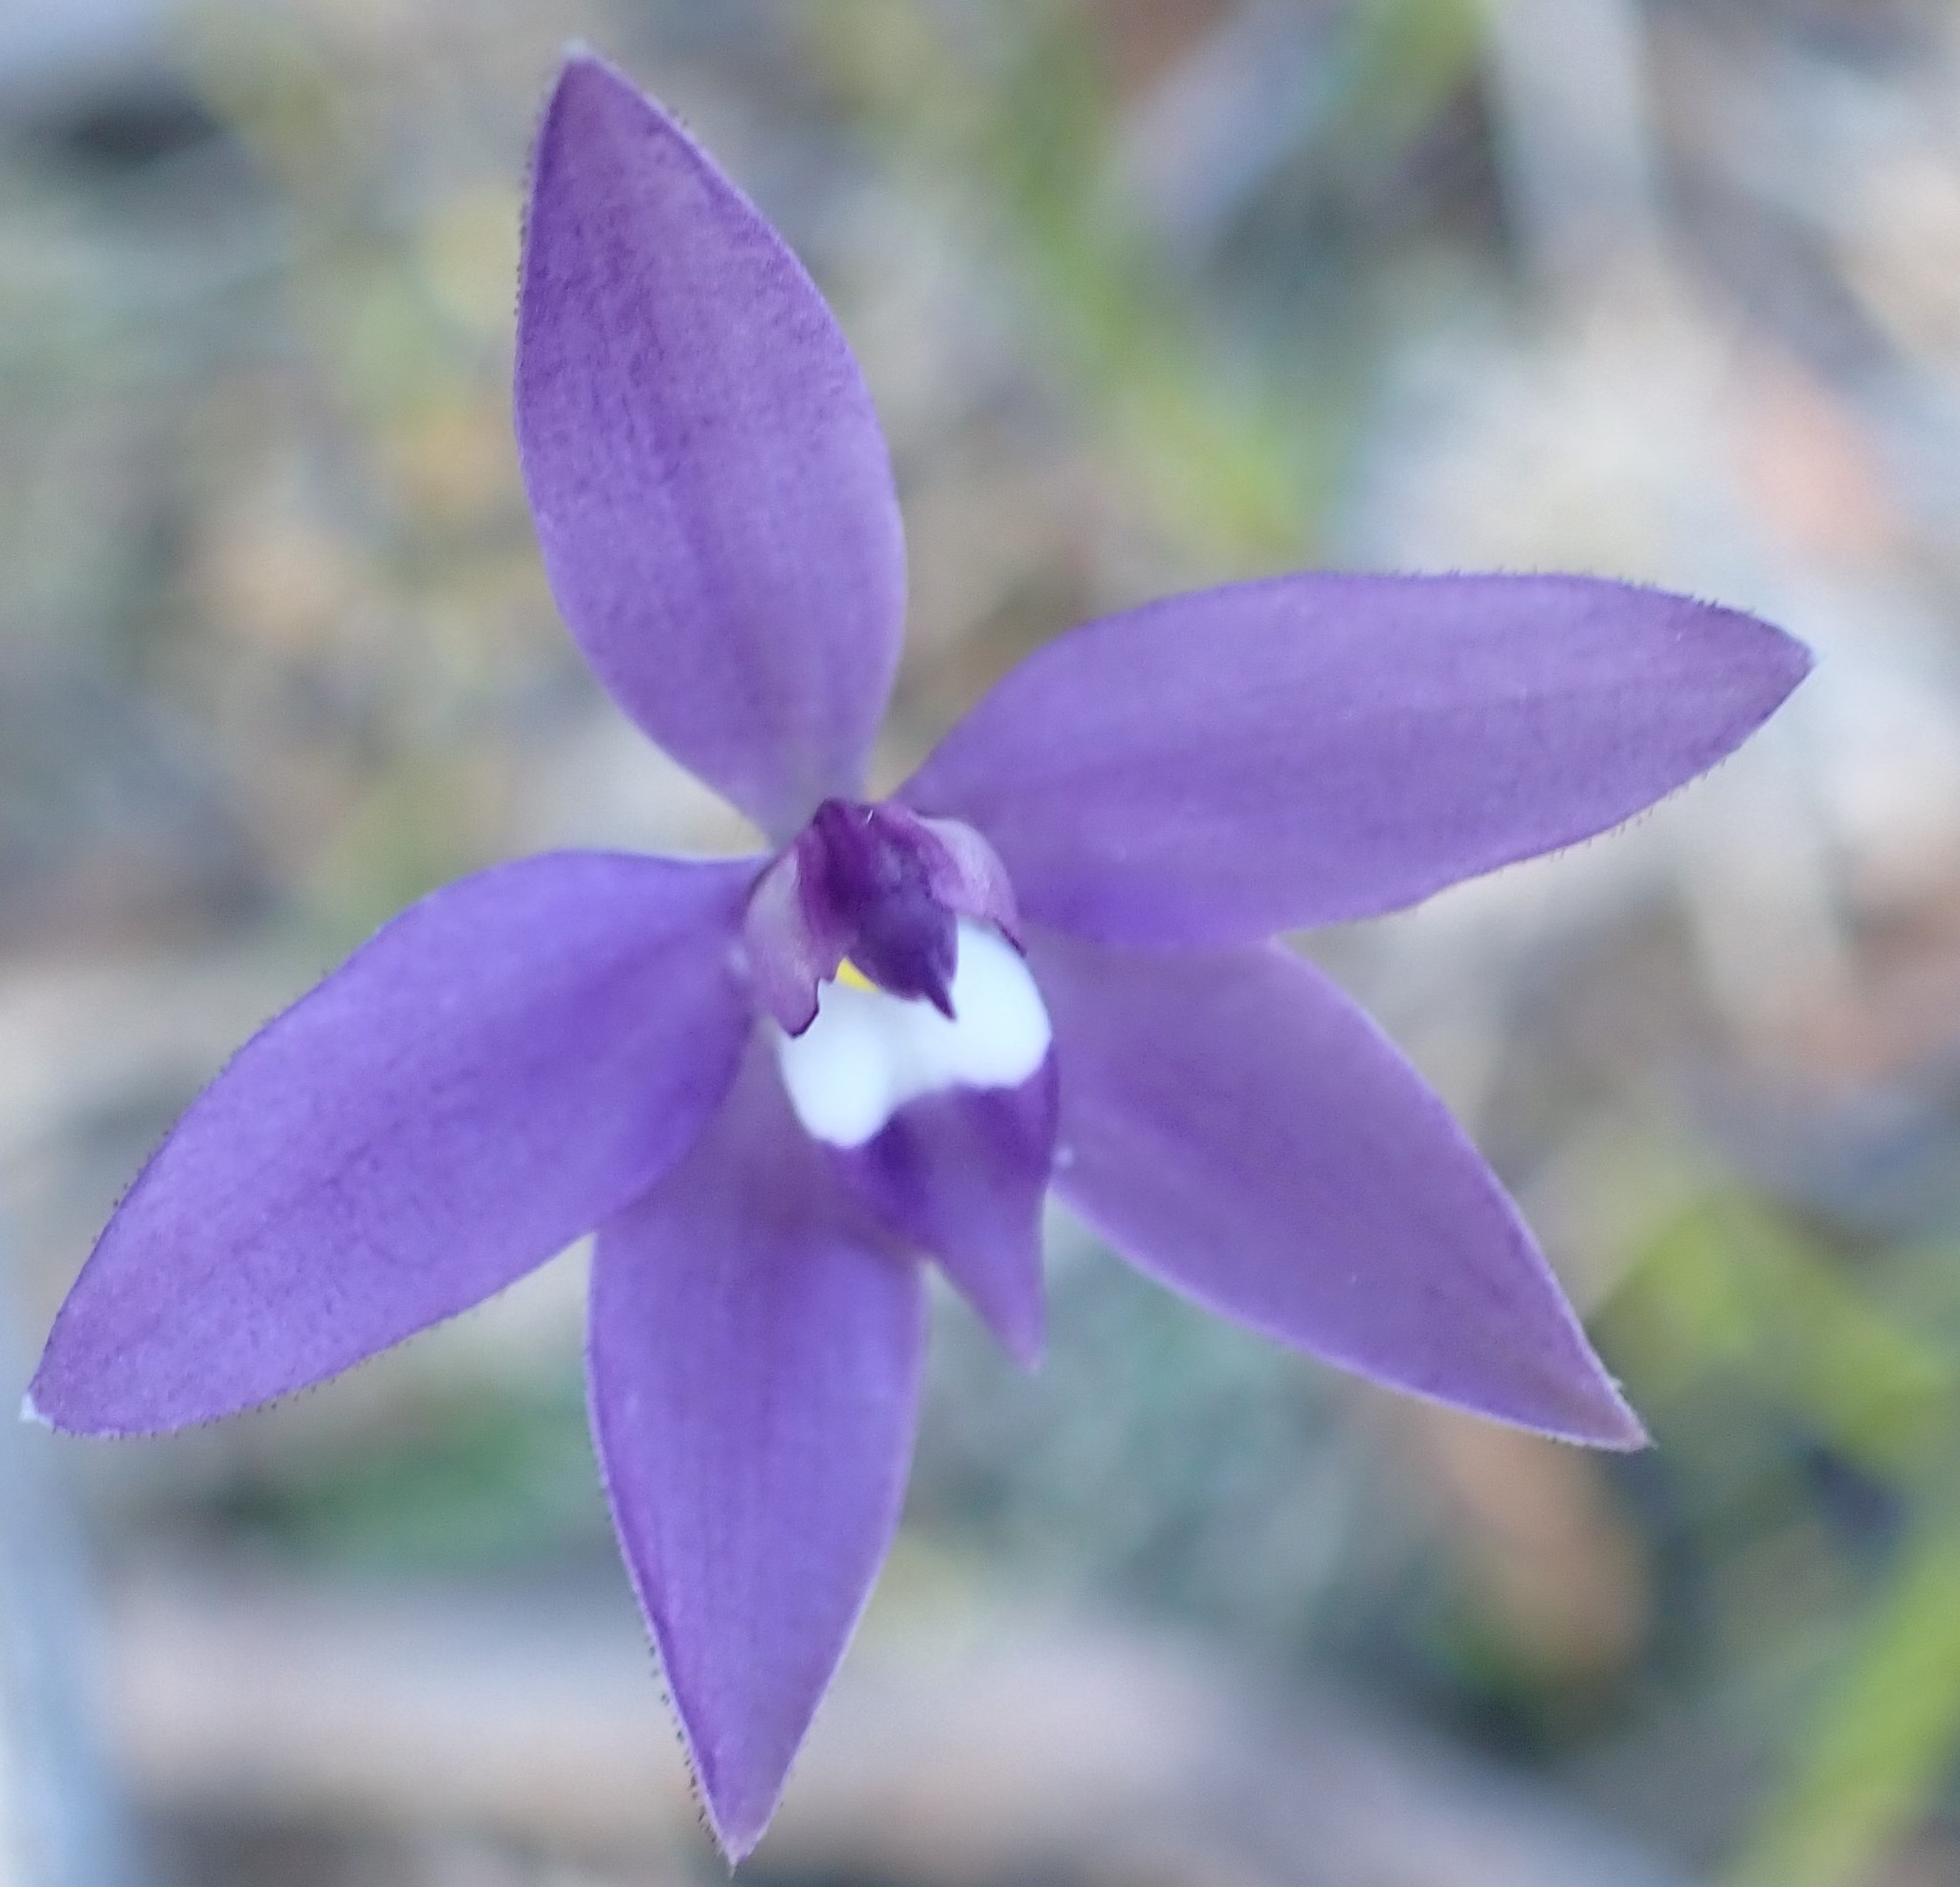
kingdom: Plantae
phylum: Tracheophyta
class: Liliopsida
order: Asparagales
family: Orchidaceae
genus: Caladenia
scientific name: Caladenia major
